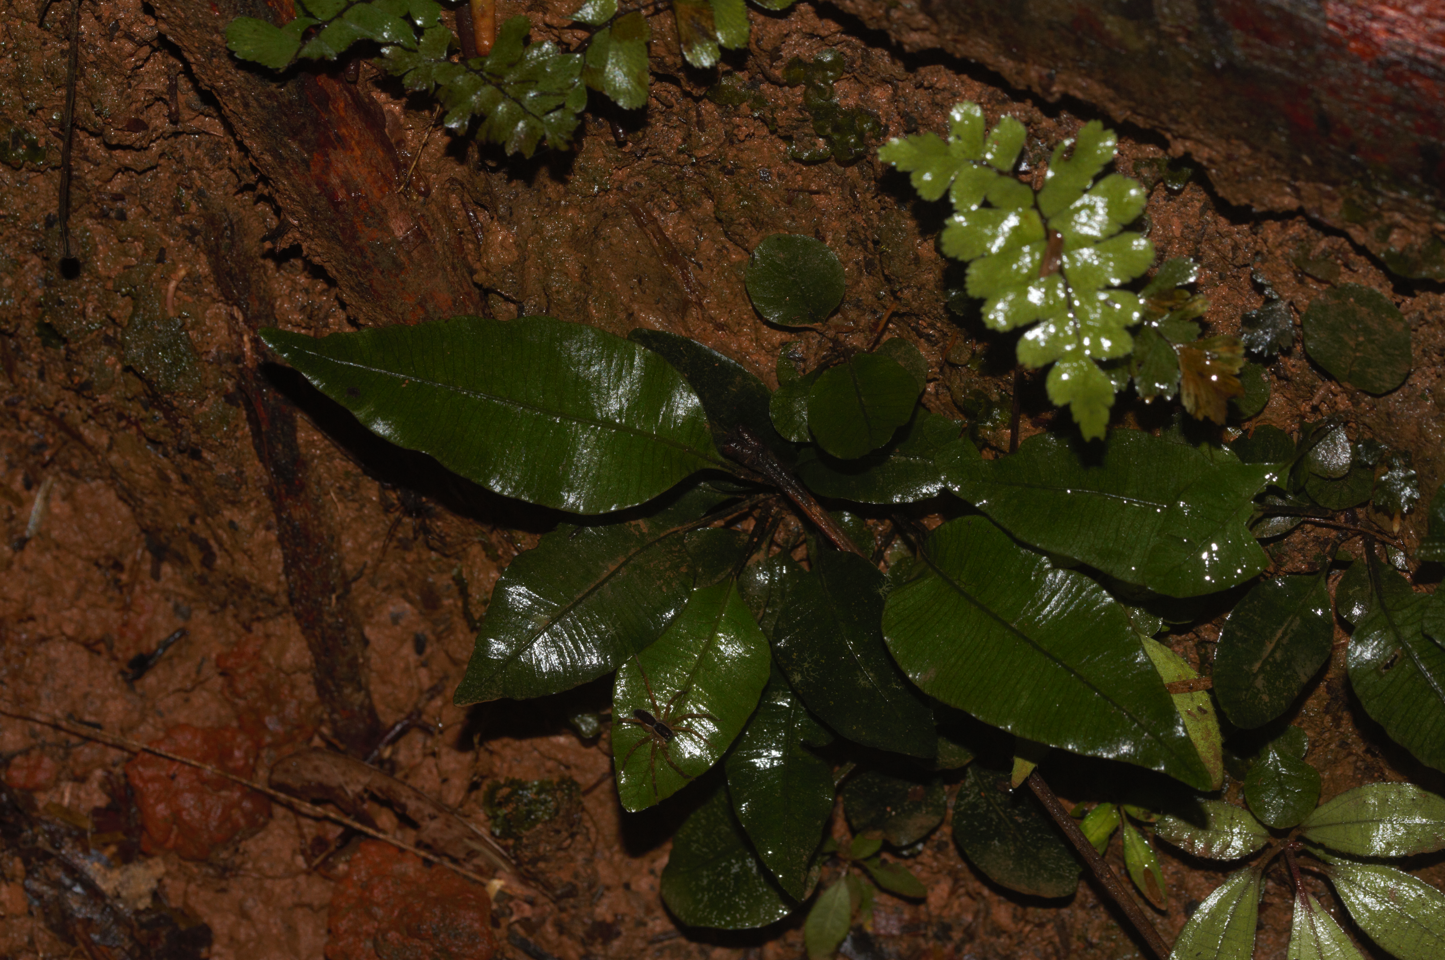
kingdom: Plantae
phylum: Tracheophyta
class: Polypodiopsida
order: Marattiales
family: Marattiaceae
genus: Danaea
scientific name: Danaea simplicifolia
